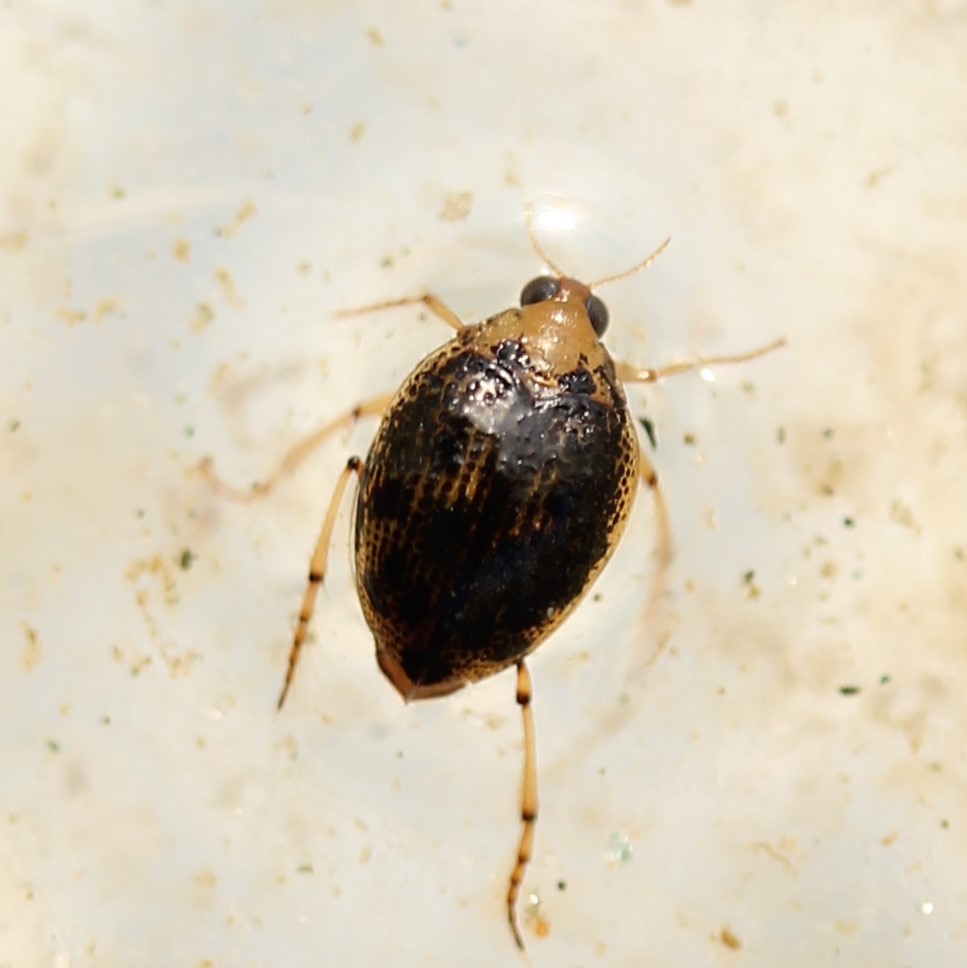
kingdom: Animalia
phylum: Arthropoda
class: Insecta
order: Coleoptera
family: Haliplidae
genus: Peltodytes
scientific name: Peltodytes
